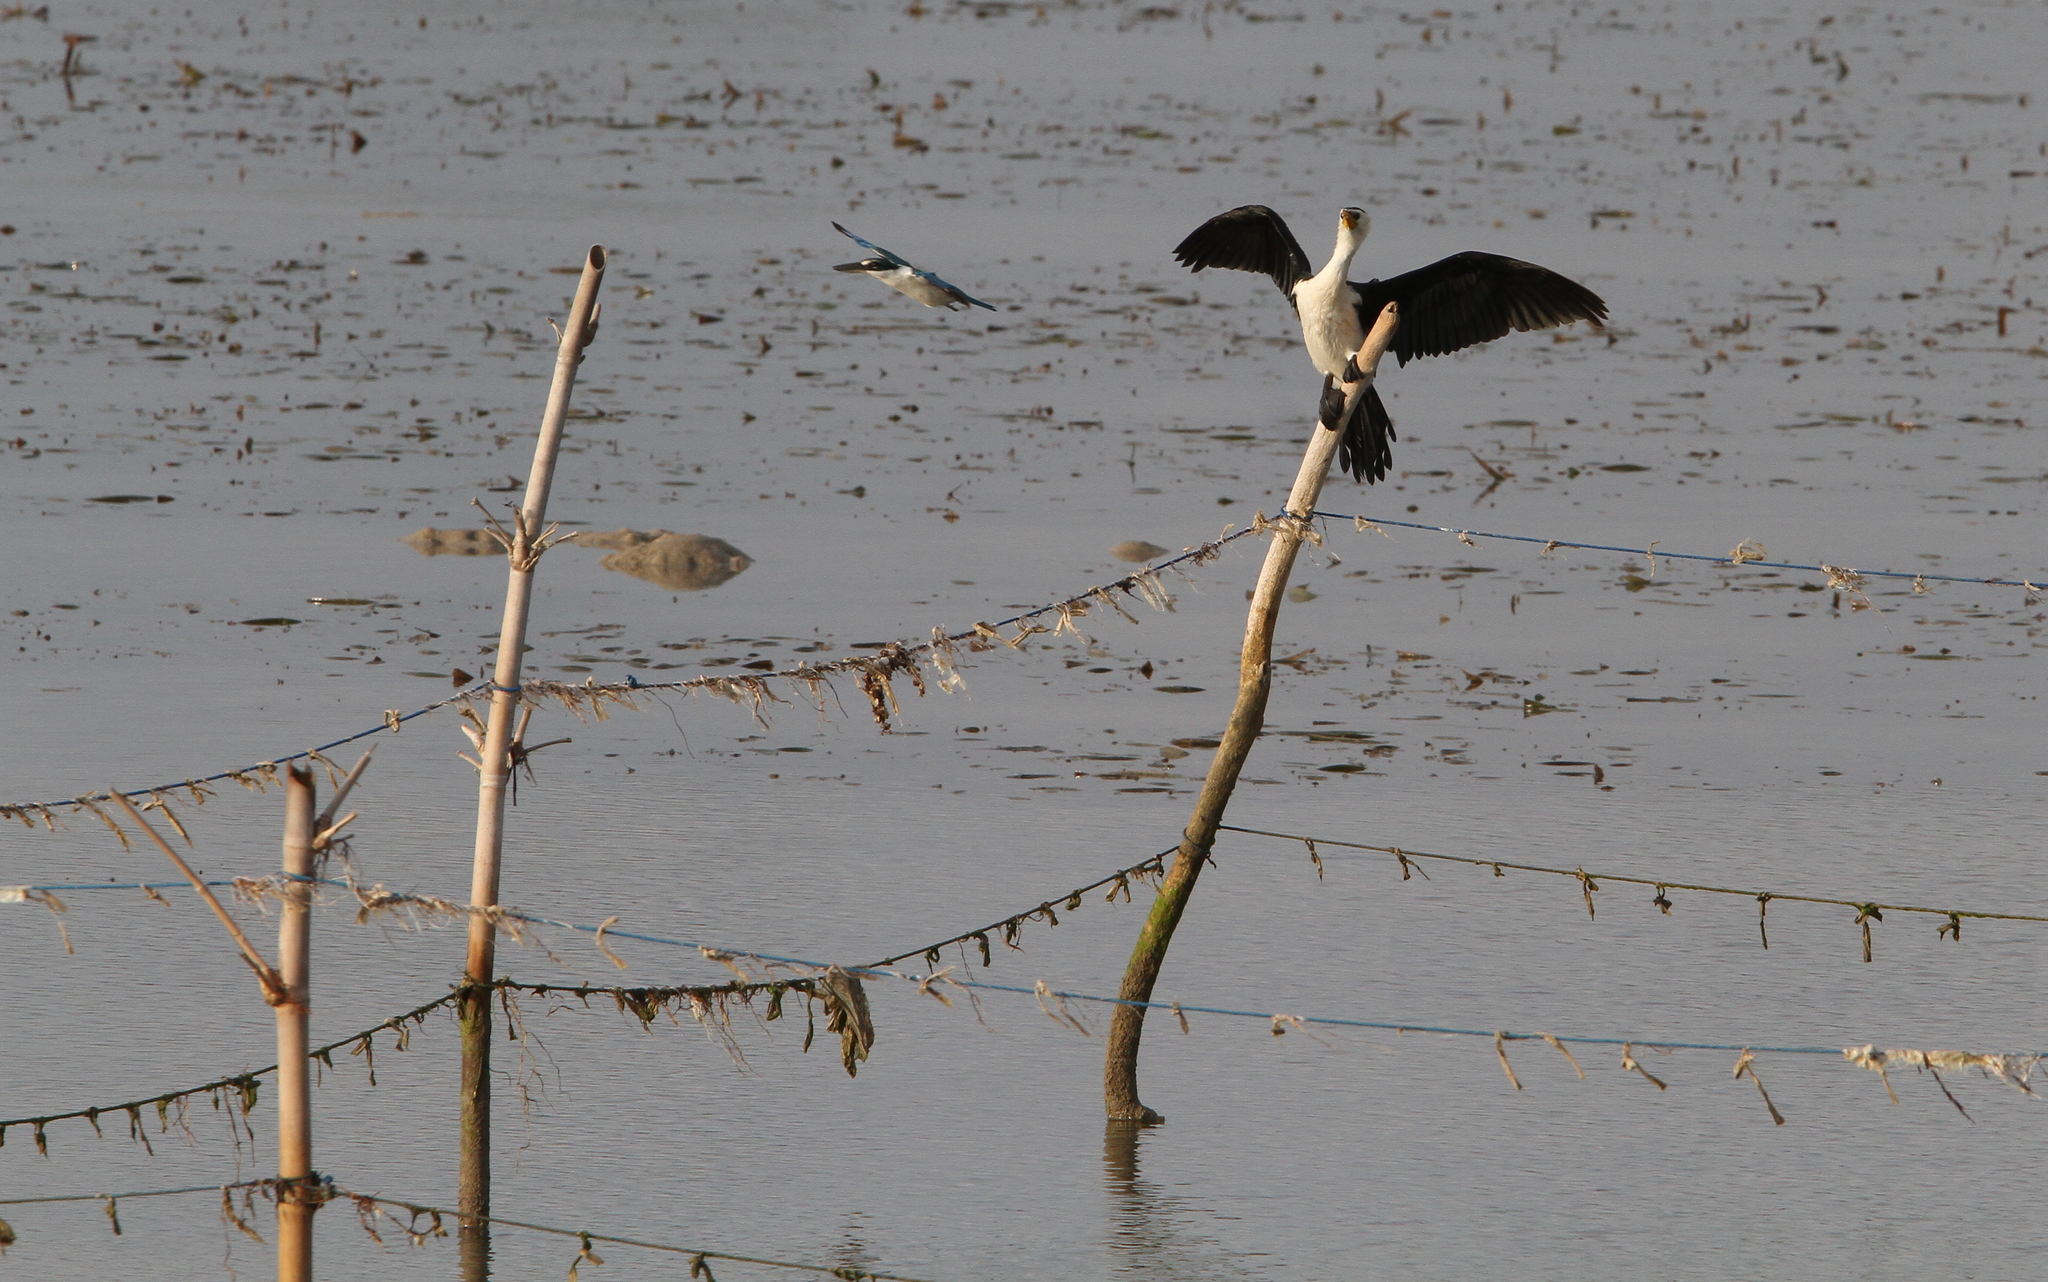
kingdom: Animalia
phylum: Chordata
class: Aves
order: Suliformes
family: Phalacrocoracidae
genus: Microcarbo
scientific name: Microcarbo melanoleucos
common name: Little pied cormorant
